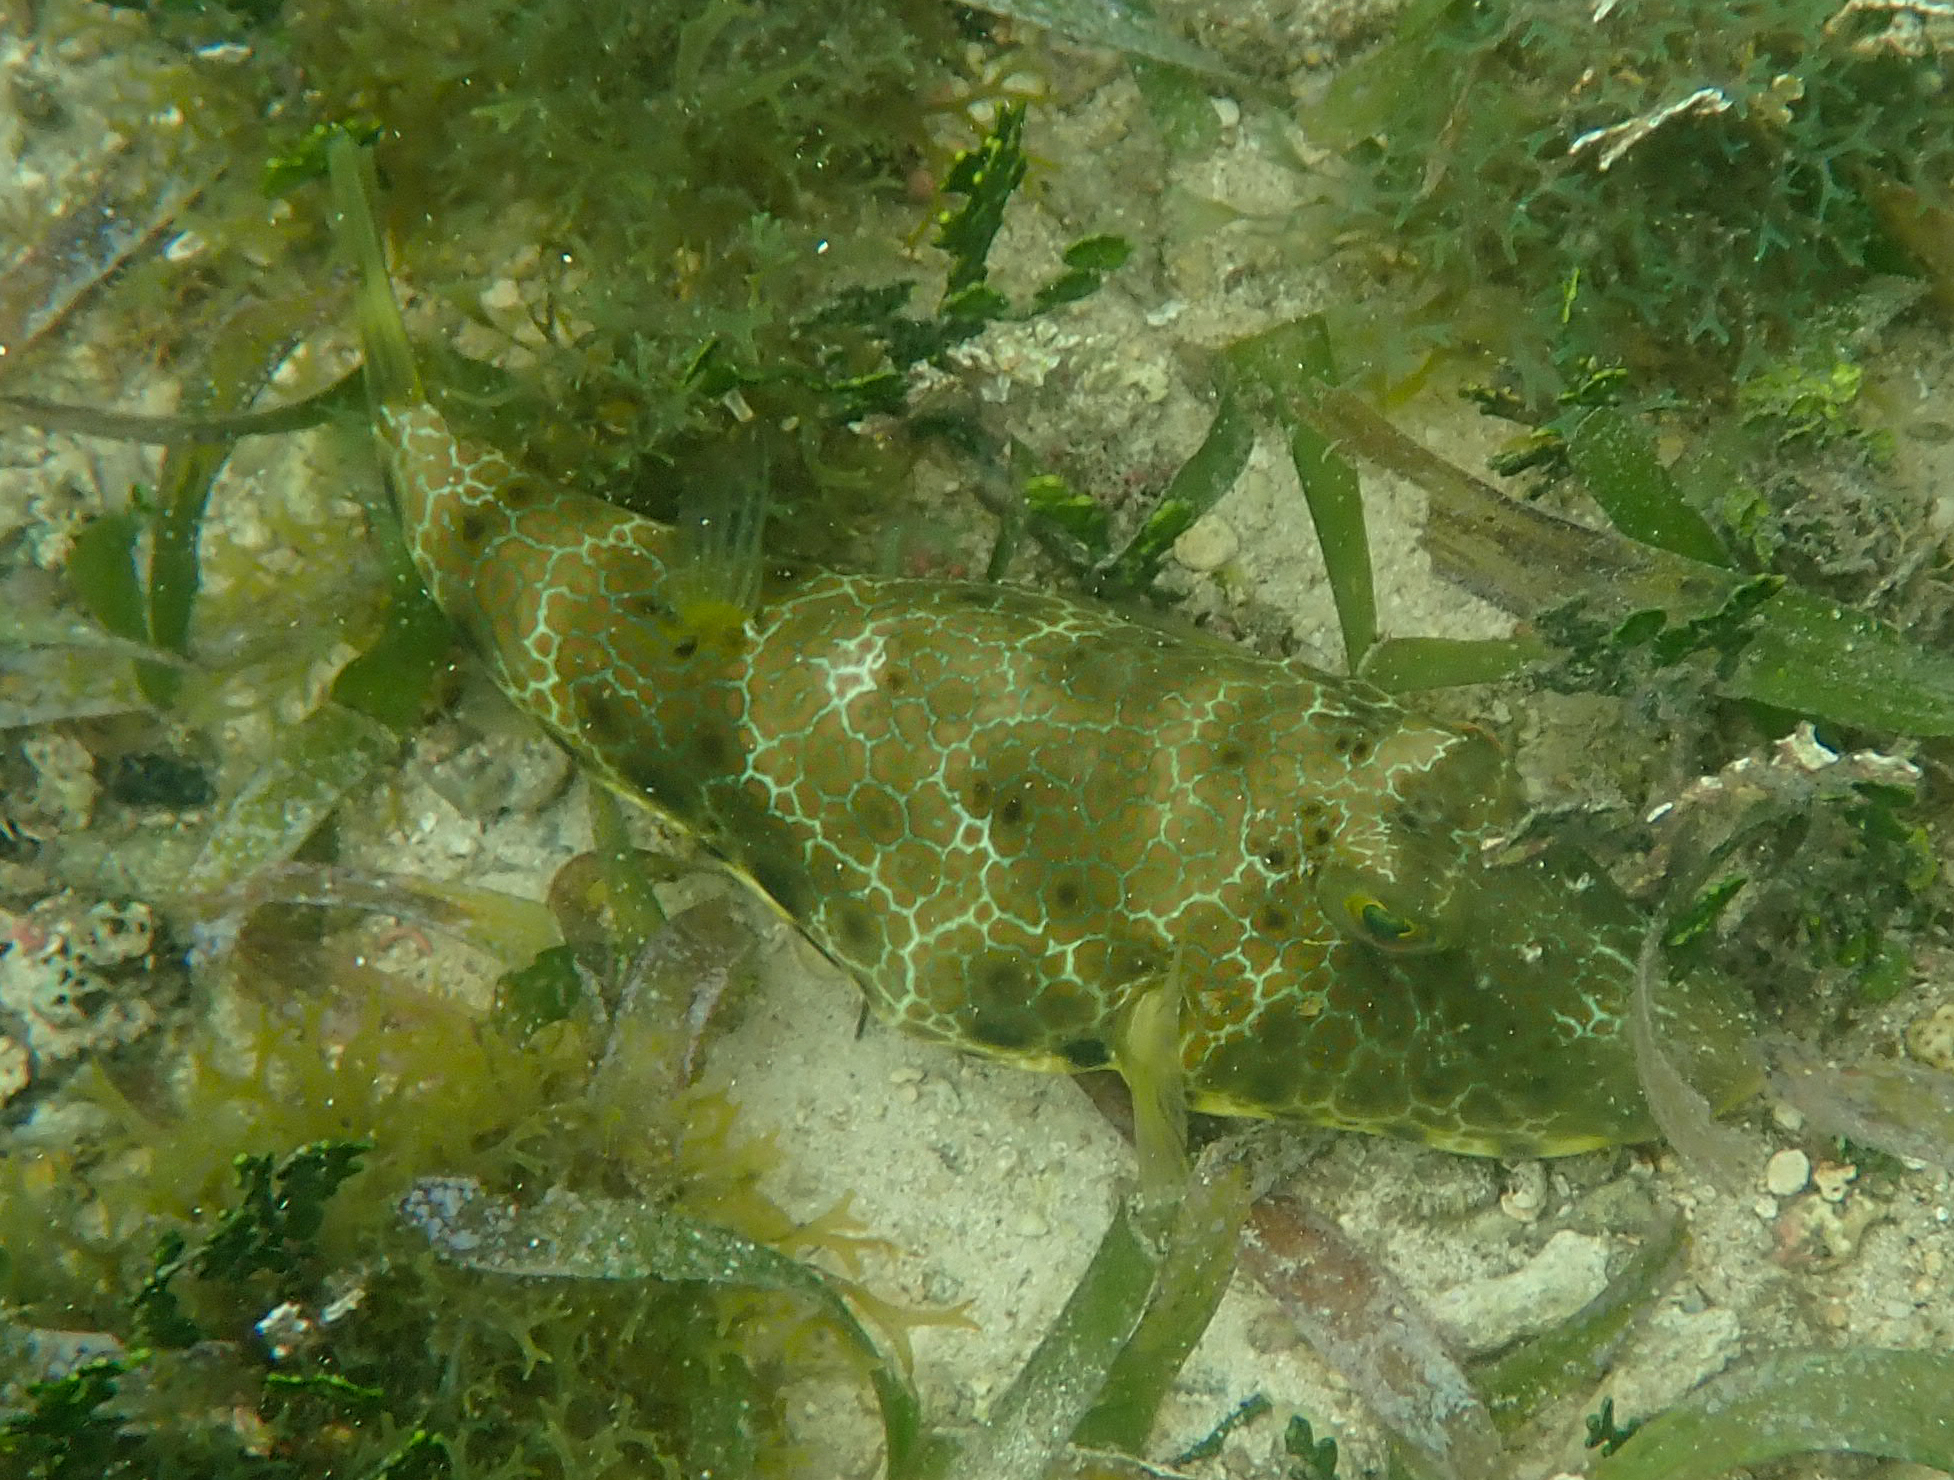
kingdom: Animalia
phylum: Chordata
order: Tetraodontiformes
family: Tetraodontidae
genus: Sphoeroides
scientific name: Sphoeroides nephelus
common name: Southern puffer
